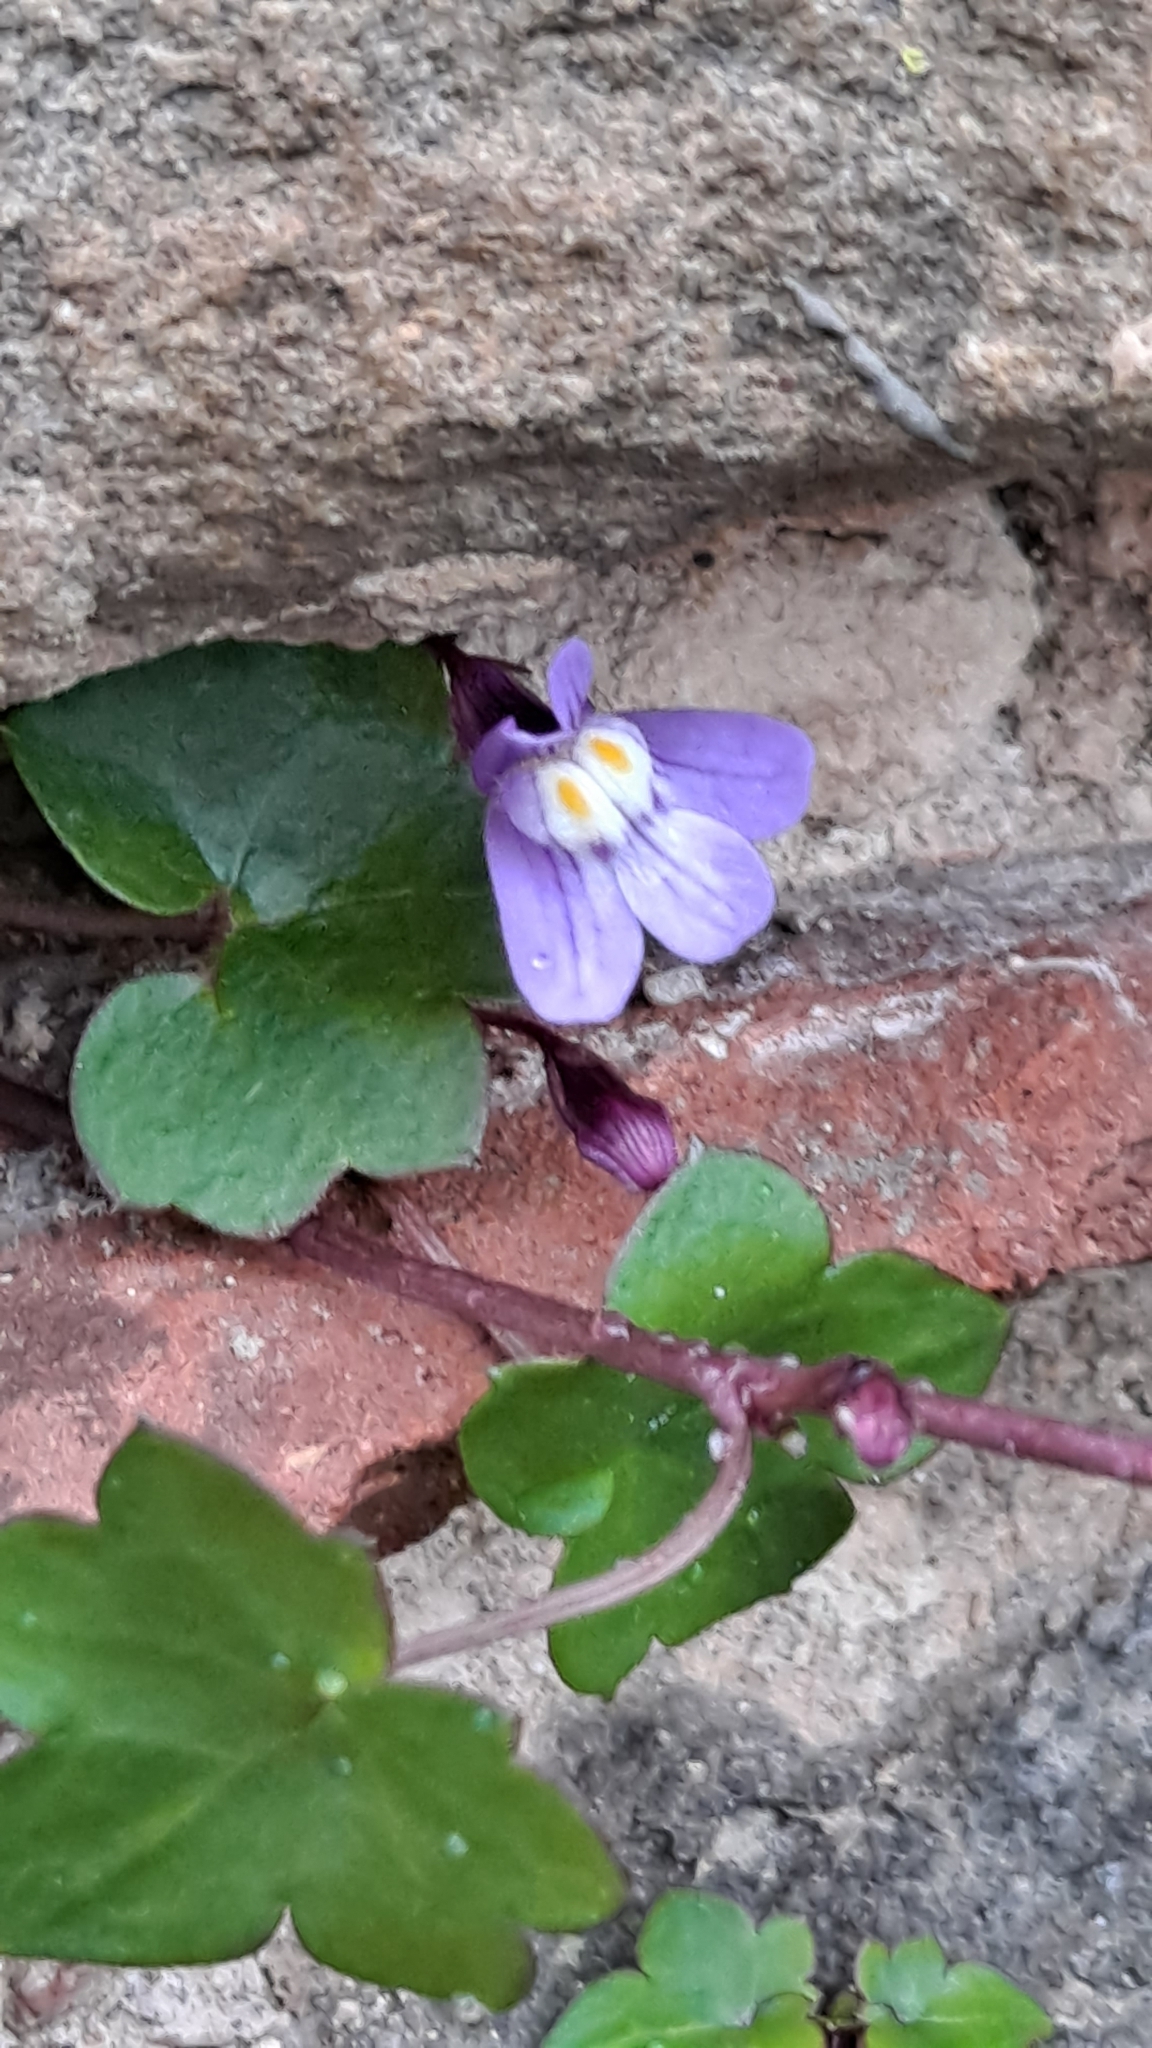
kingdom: Plantae
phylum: Tracheophyta
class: Magnoliopsida
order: Lamiales
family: Plantaginaceae
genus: Cymbalaria
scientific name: Cymbalaria muralis
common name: Ivy-leaved toadflax
